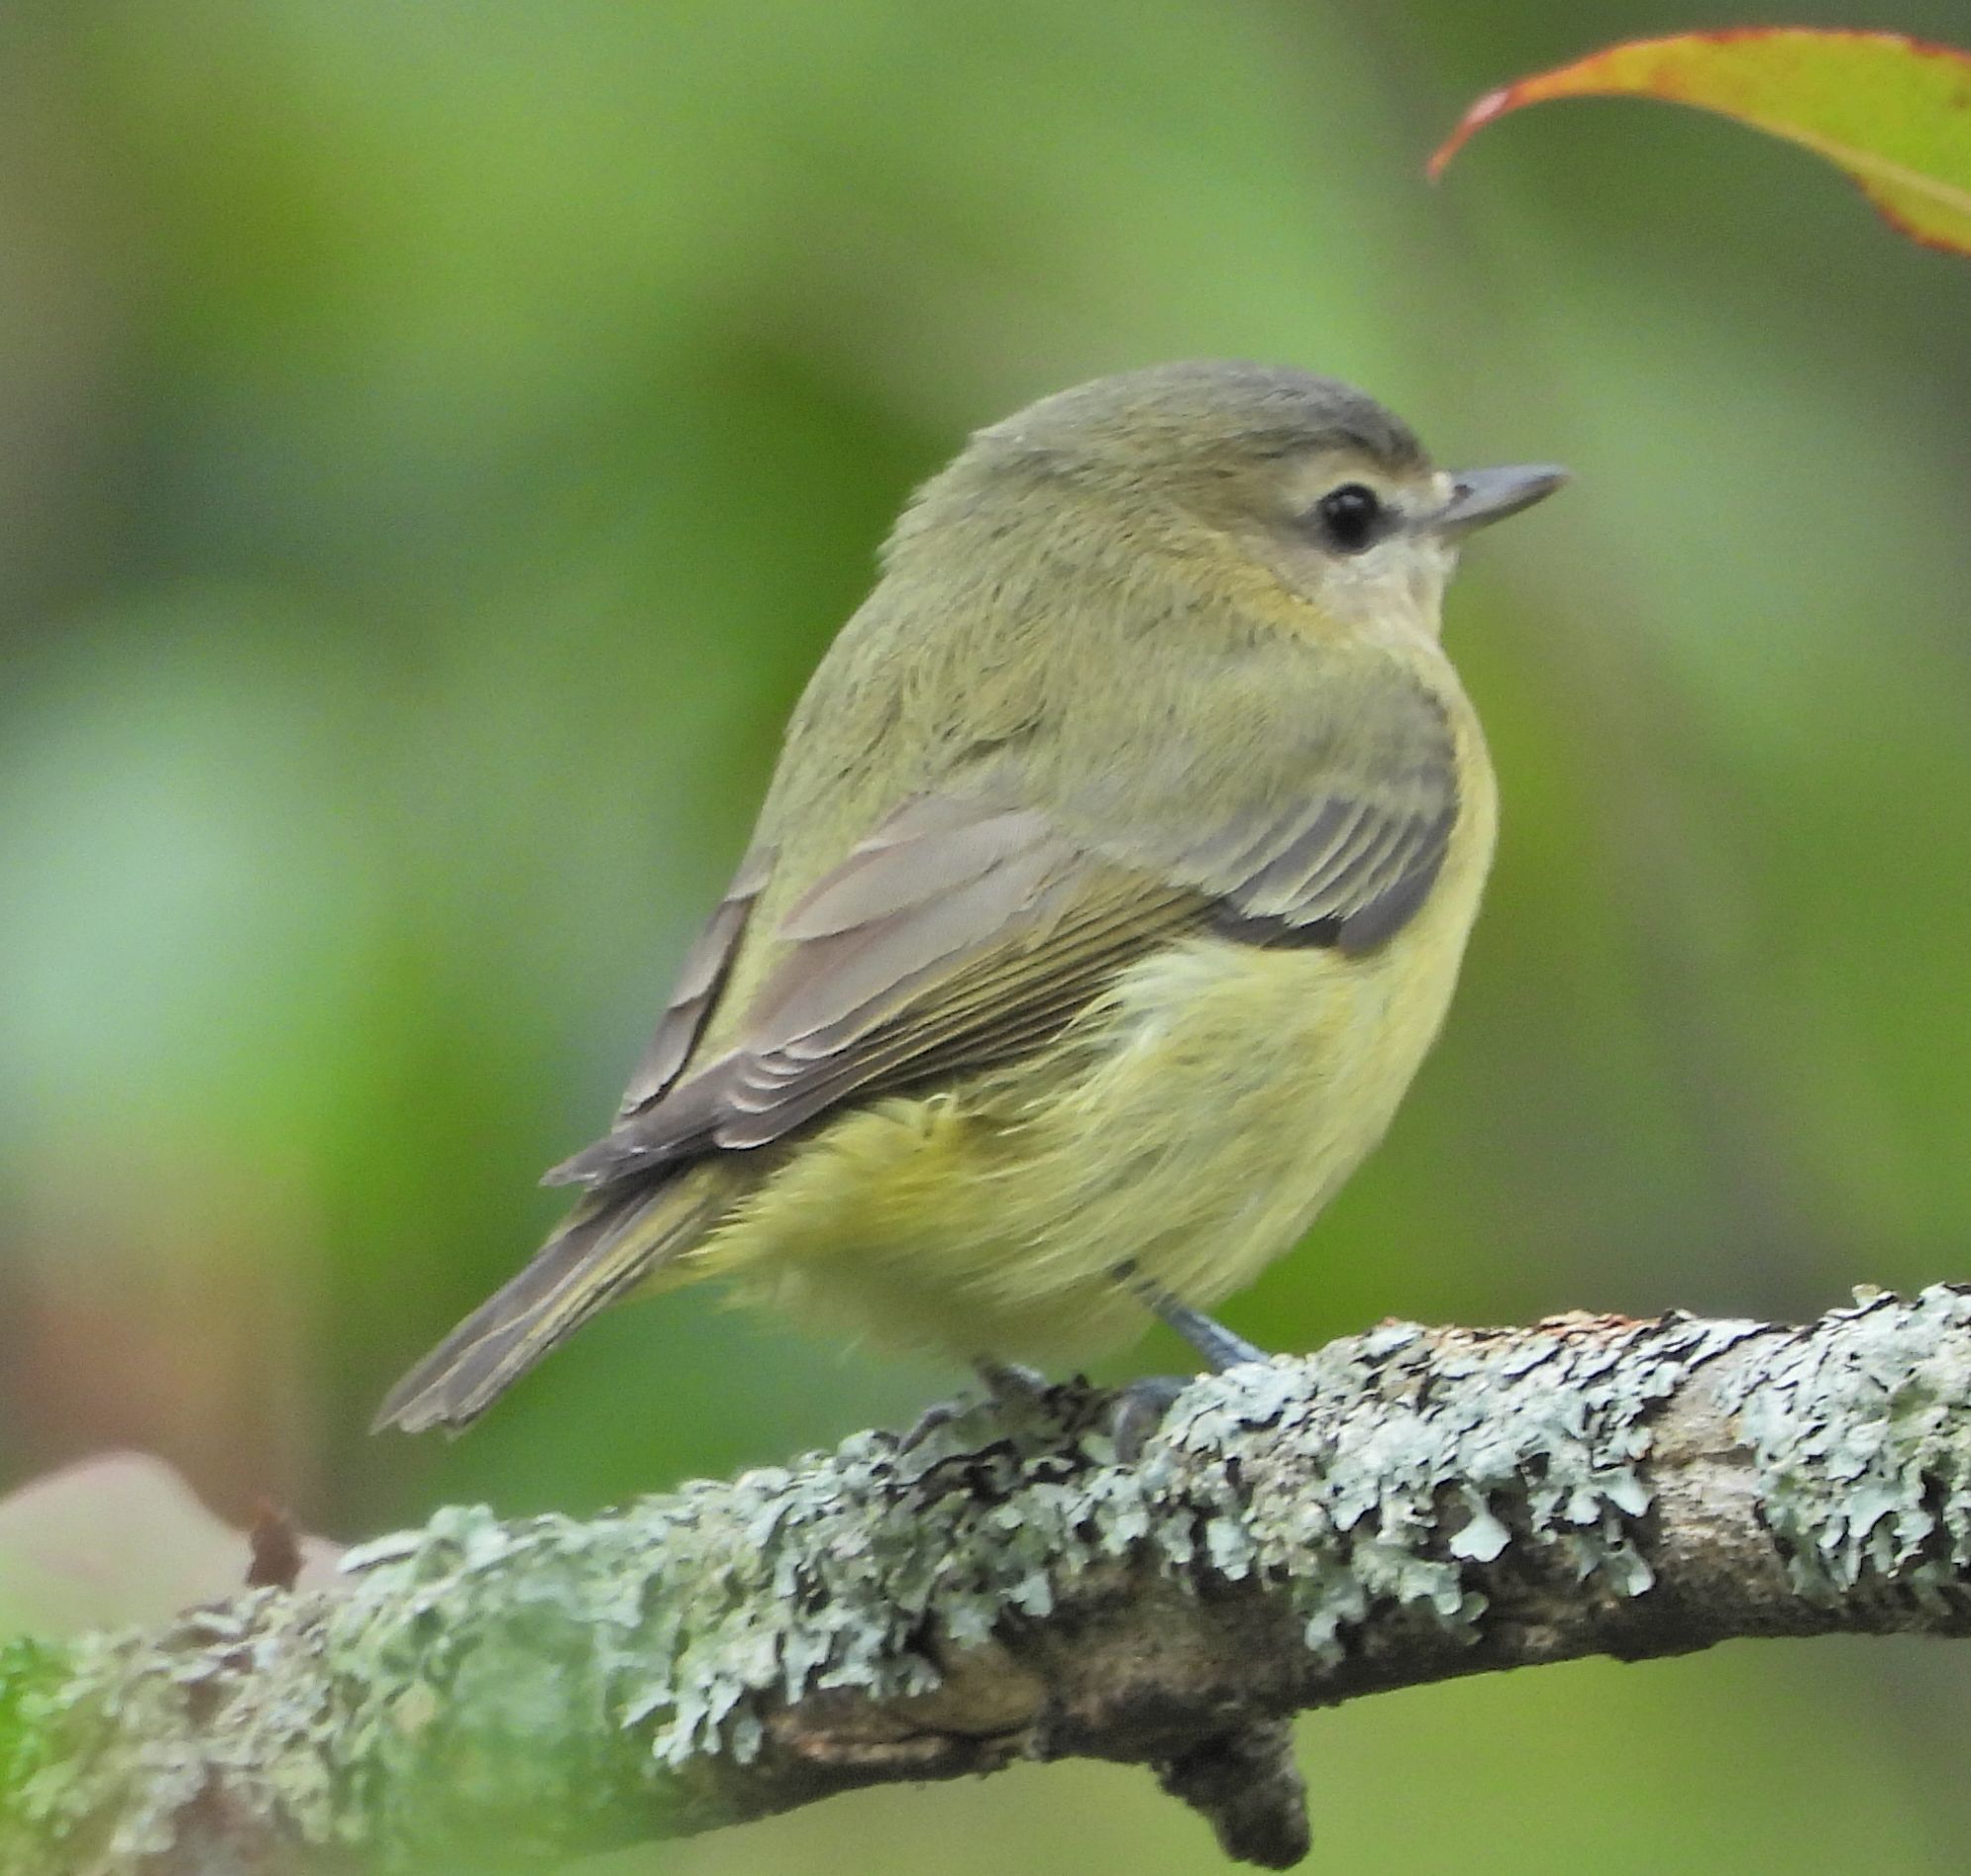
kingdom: Animalia
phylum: Chordata
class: Aves
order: Passeriformes
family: Vireonidae
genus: Vireo
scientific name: Vireo philadelphicus
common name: Philadelphia vireo
